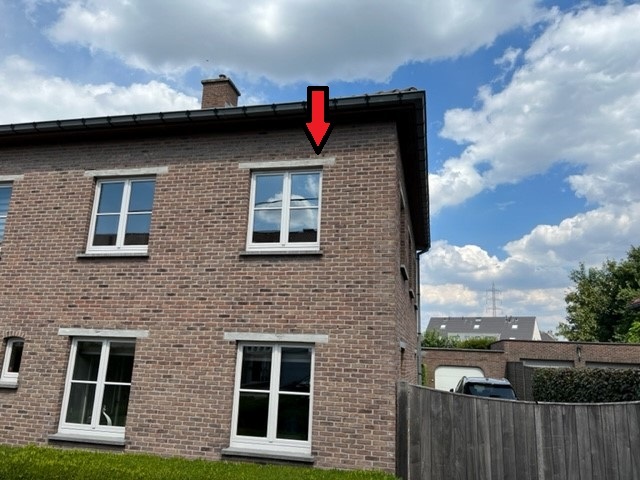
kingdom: Animalia
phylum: Arthropoda
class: Insecta
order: Hymenoptera
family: Vespidae
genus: Vespa
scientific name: Vespa crabro
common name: Hornet
